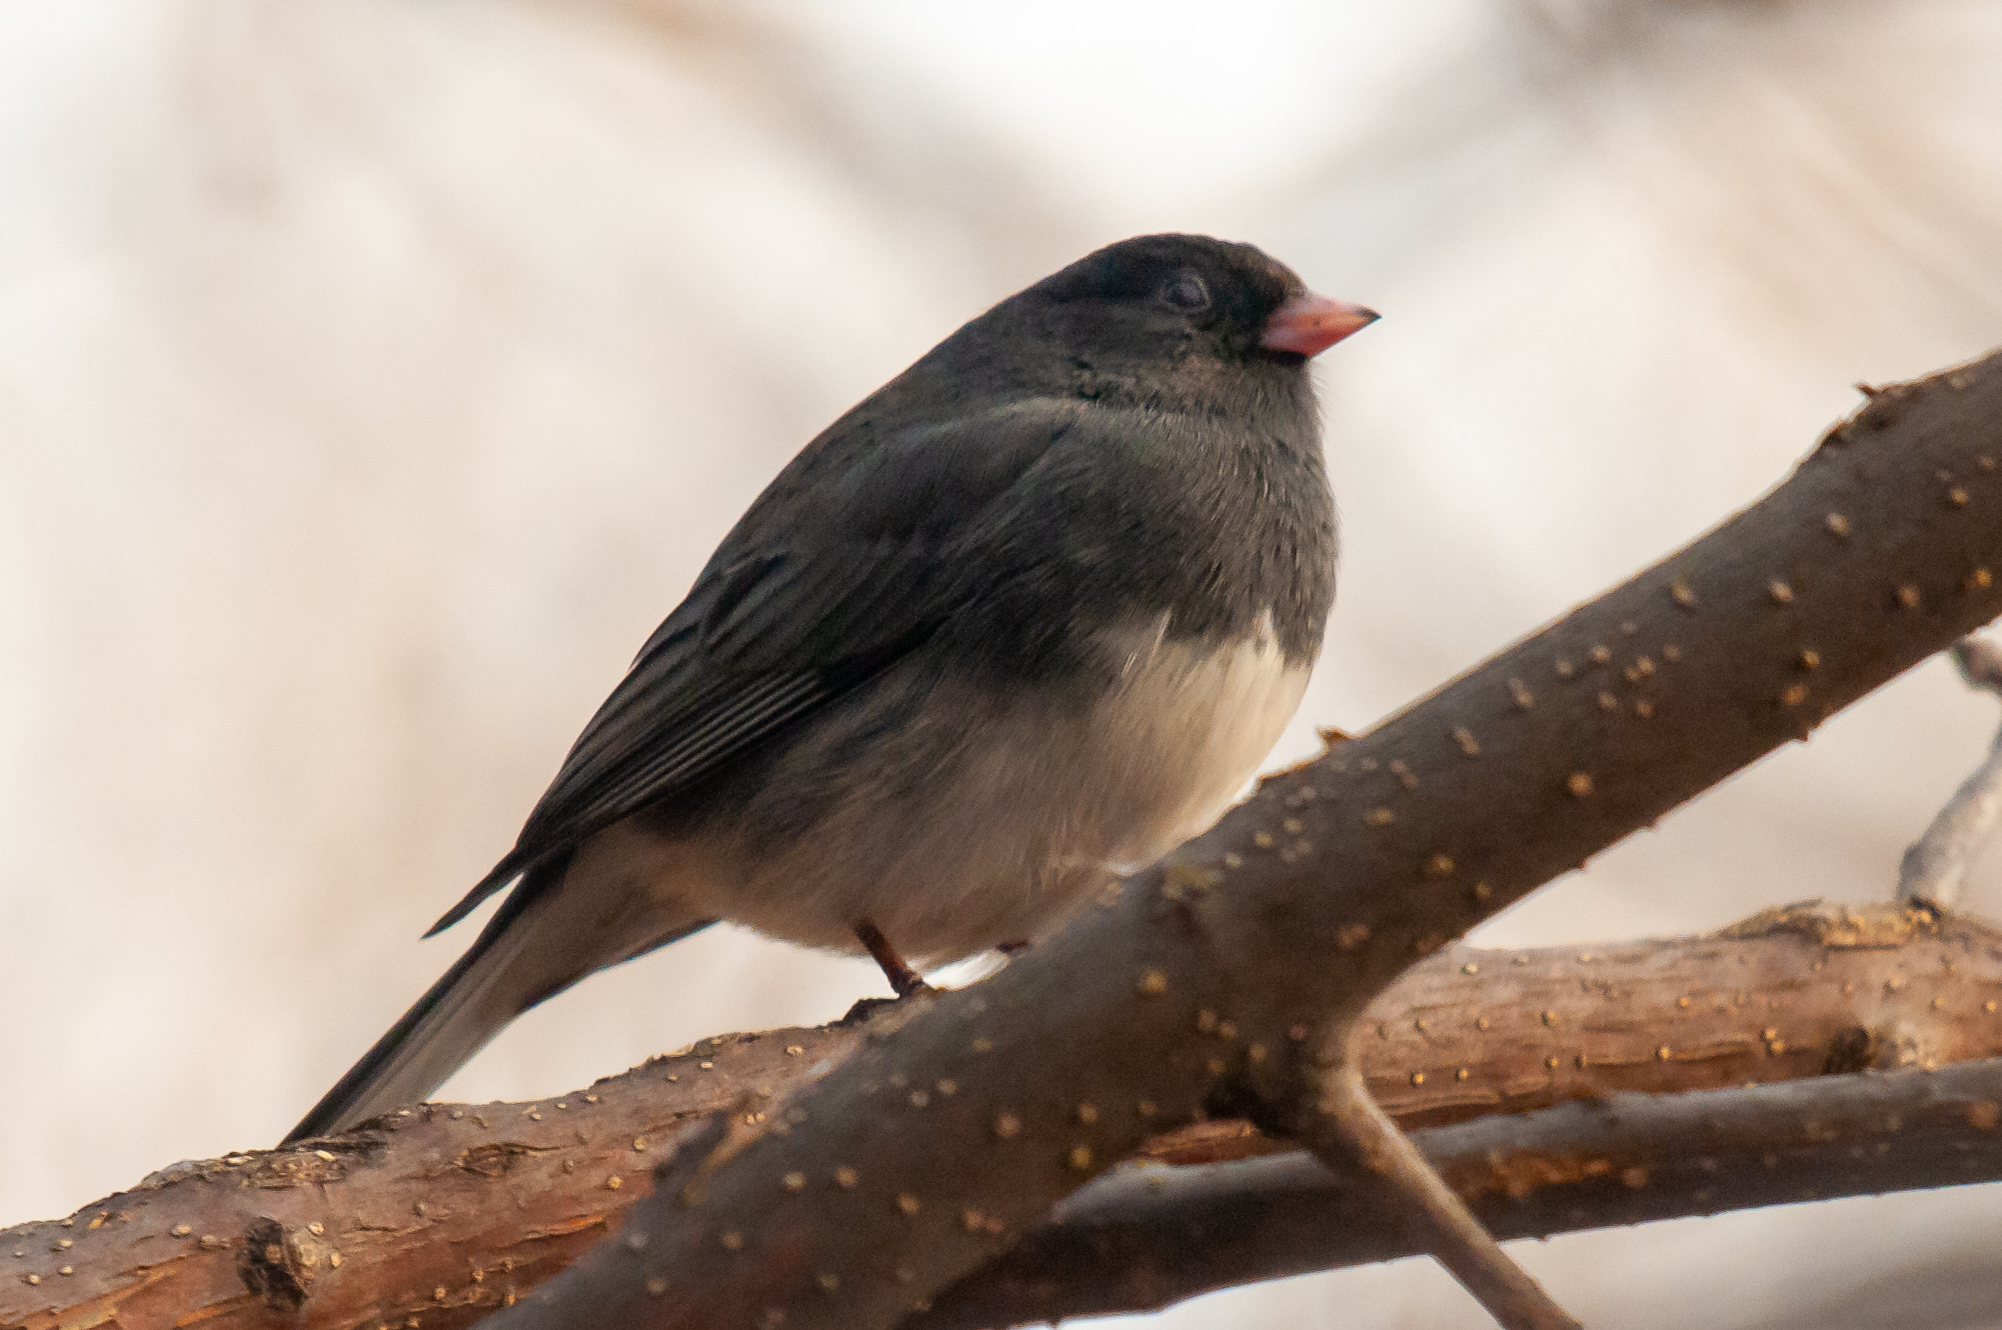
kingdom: Animalia
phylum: Chordata
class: Aves
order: Passeriformes
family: Passerellidae
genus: Junco
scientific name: Junco hyemalis
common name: Dark-eyed junco
